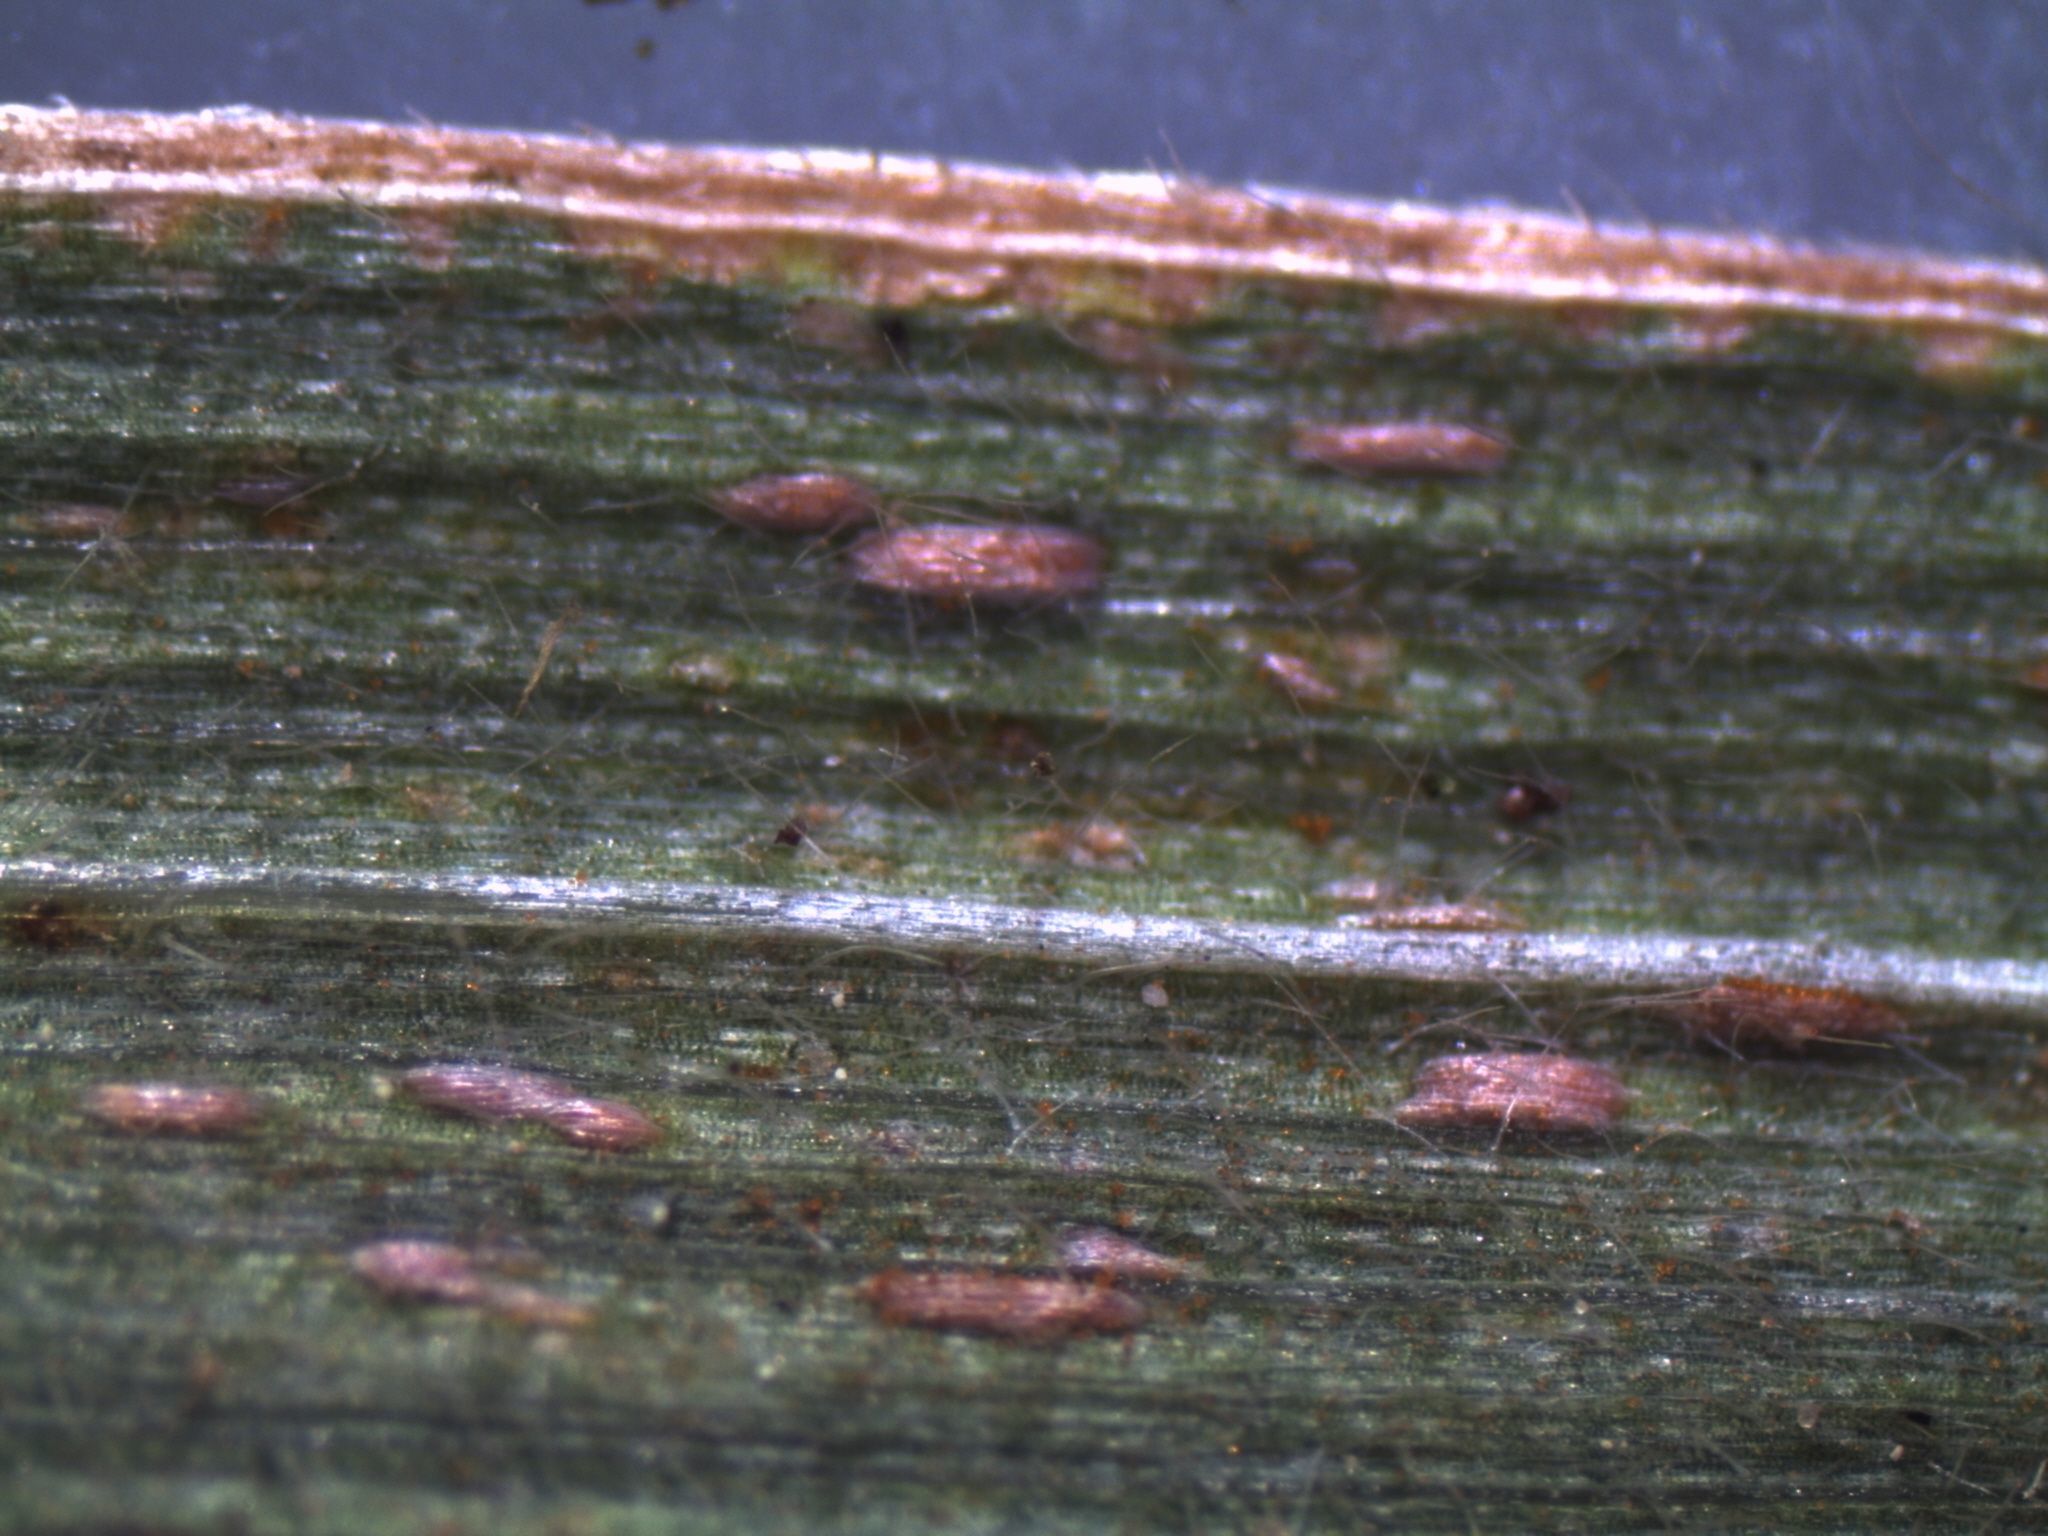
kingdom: Fungi
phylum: Basidiomycota
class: Pucciniomycetes
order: Pucciniales
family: Pucciniaceae
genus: Puccinia
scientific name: Puccinia recondita
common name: Brown rust of wheat
